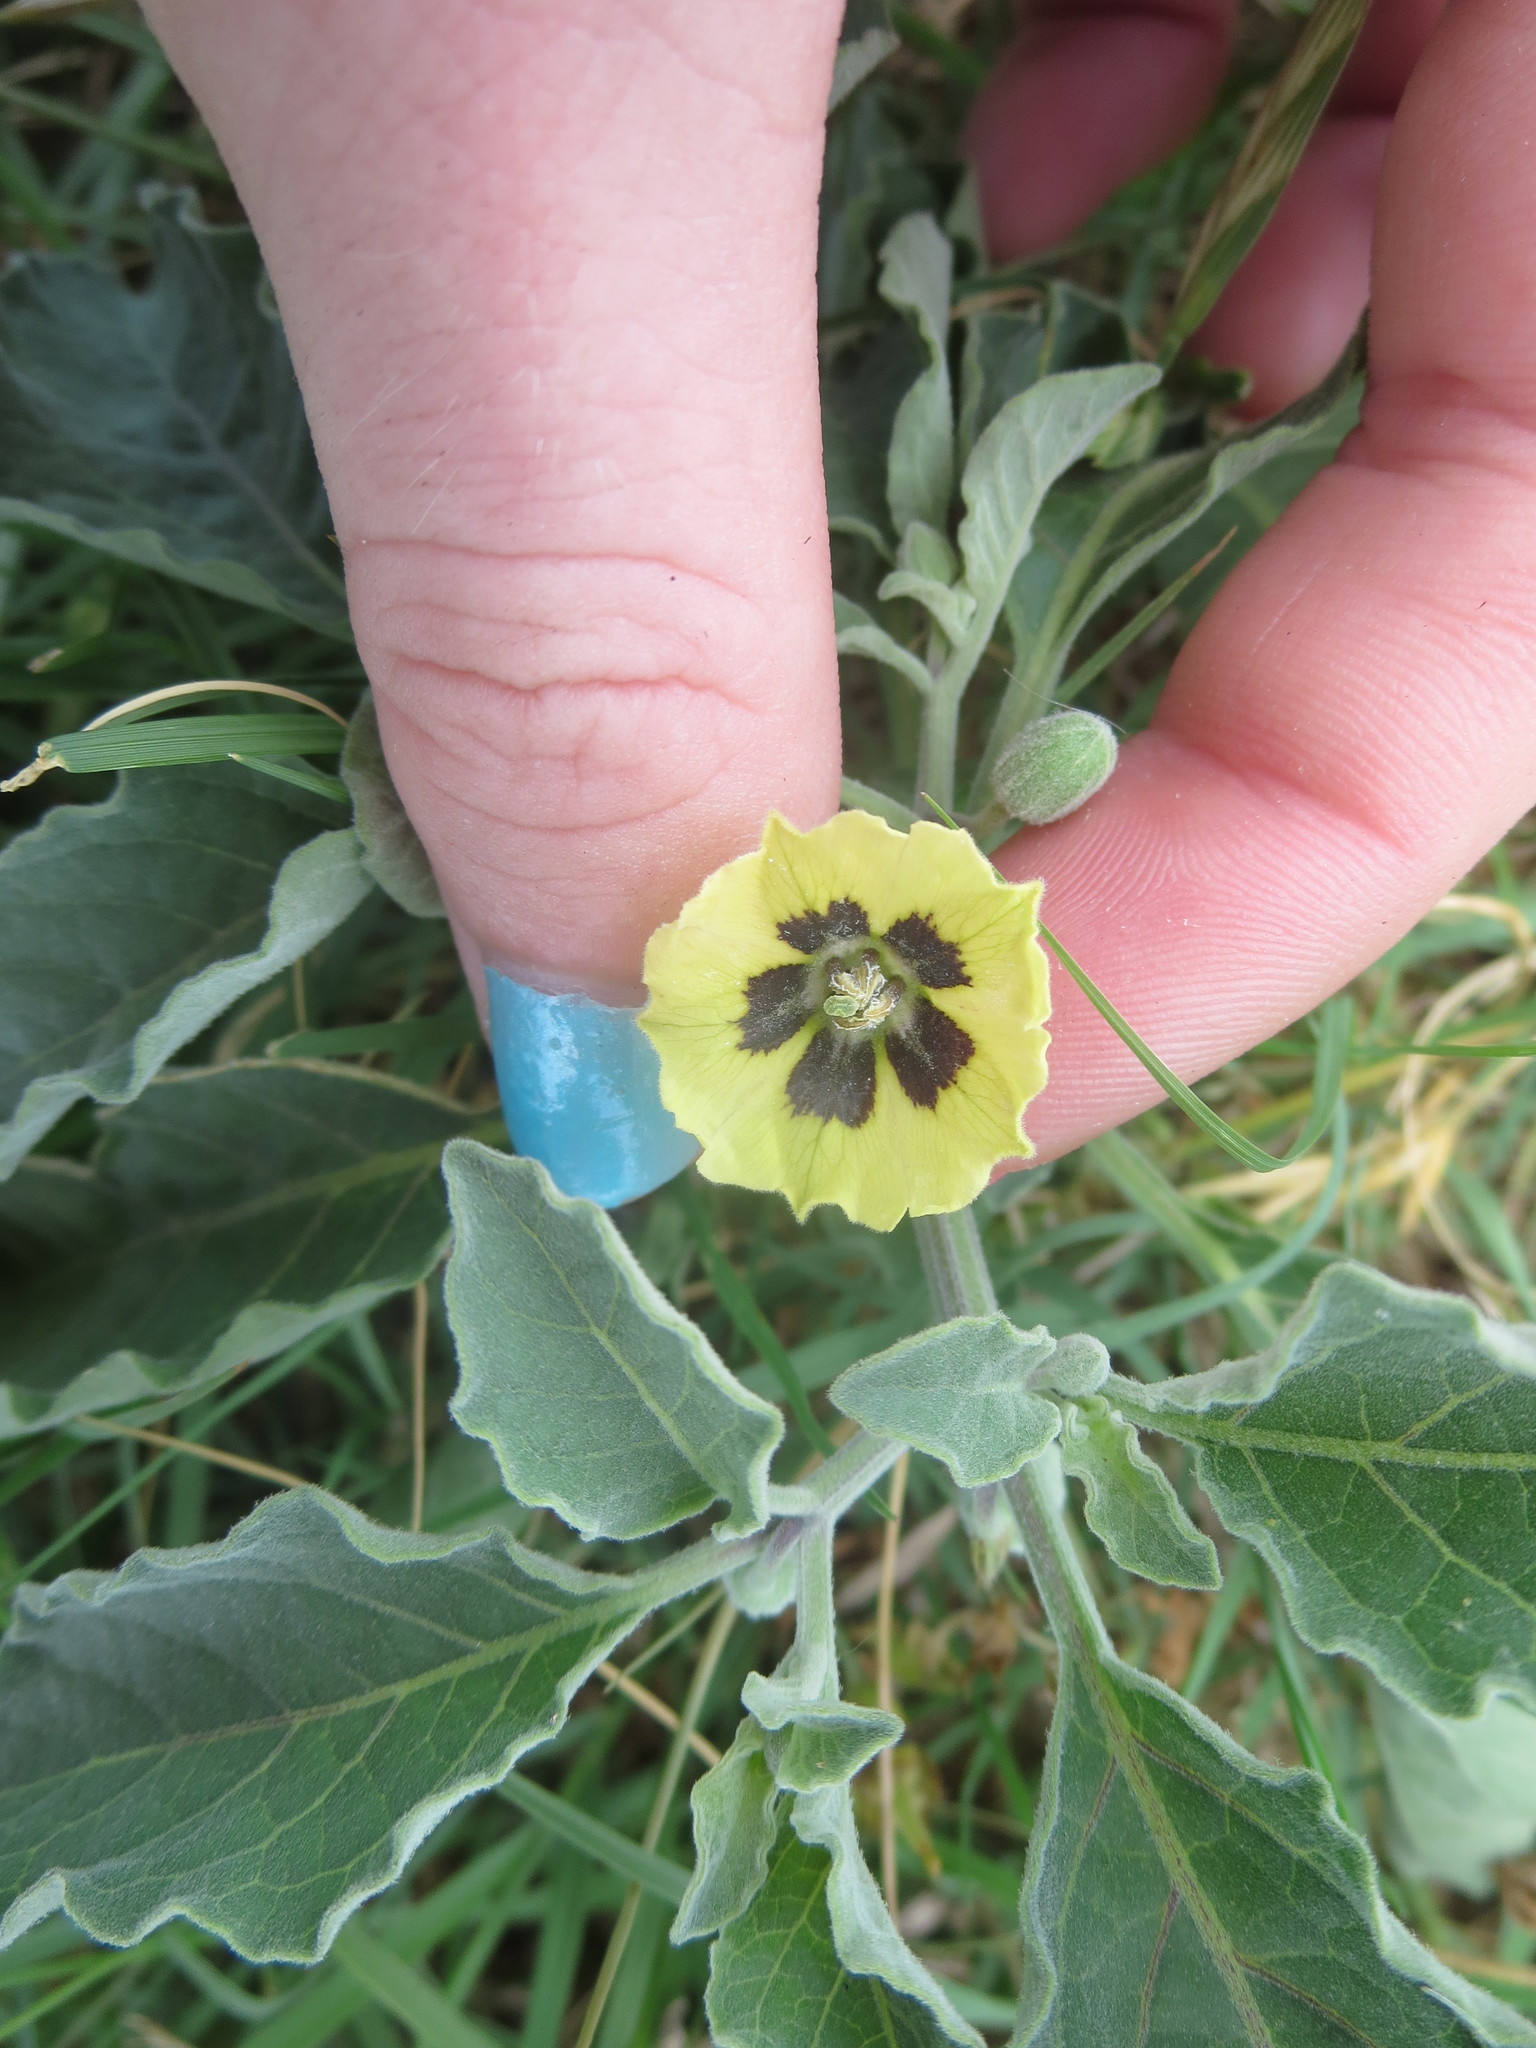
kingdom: Plantae
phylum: Tracheophyta
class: Magnoliopsida
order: Solanales
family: Solanaceae
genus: Physalis
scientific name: Physalis walteri
